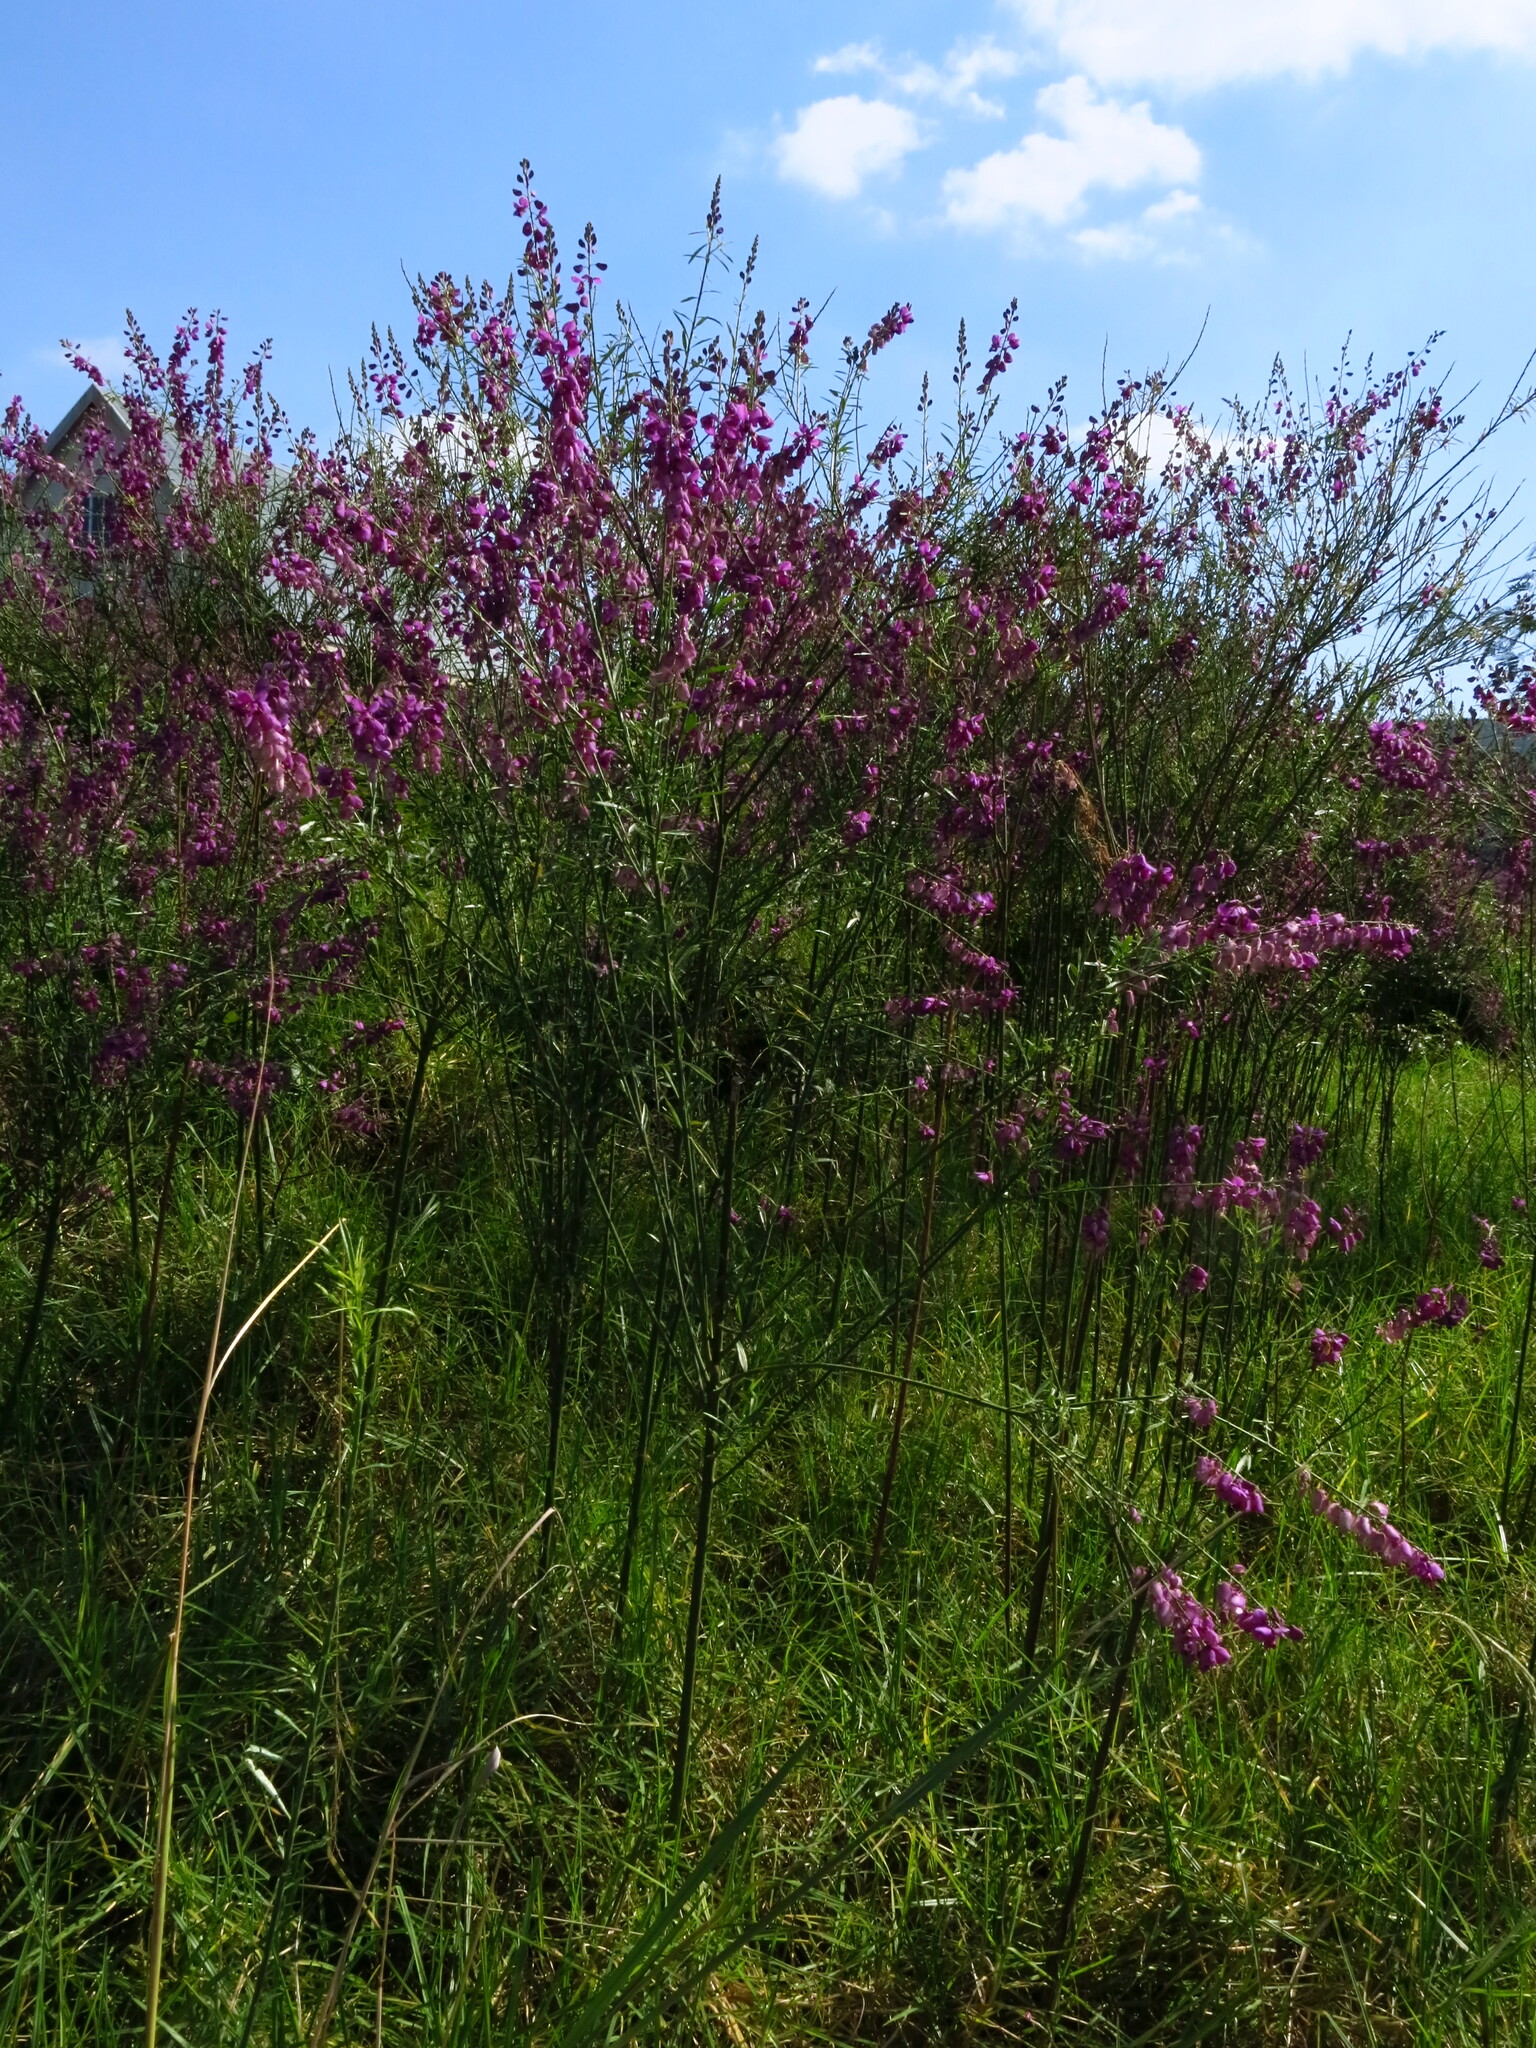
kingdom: Plantae
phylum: Tracheophyta
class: Magnoliopsida
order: Fabales
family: Polygalaceae
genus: Polygala
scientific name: Polygala virgata
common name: Milkwort
